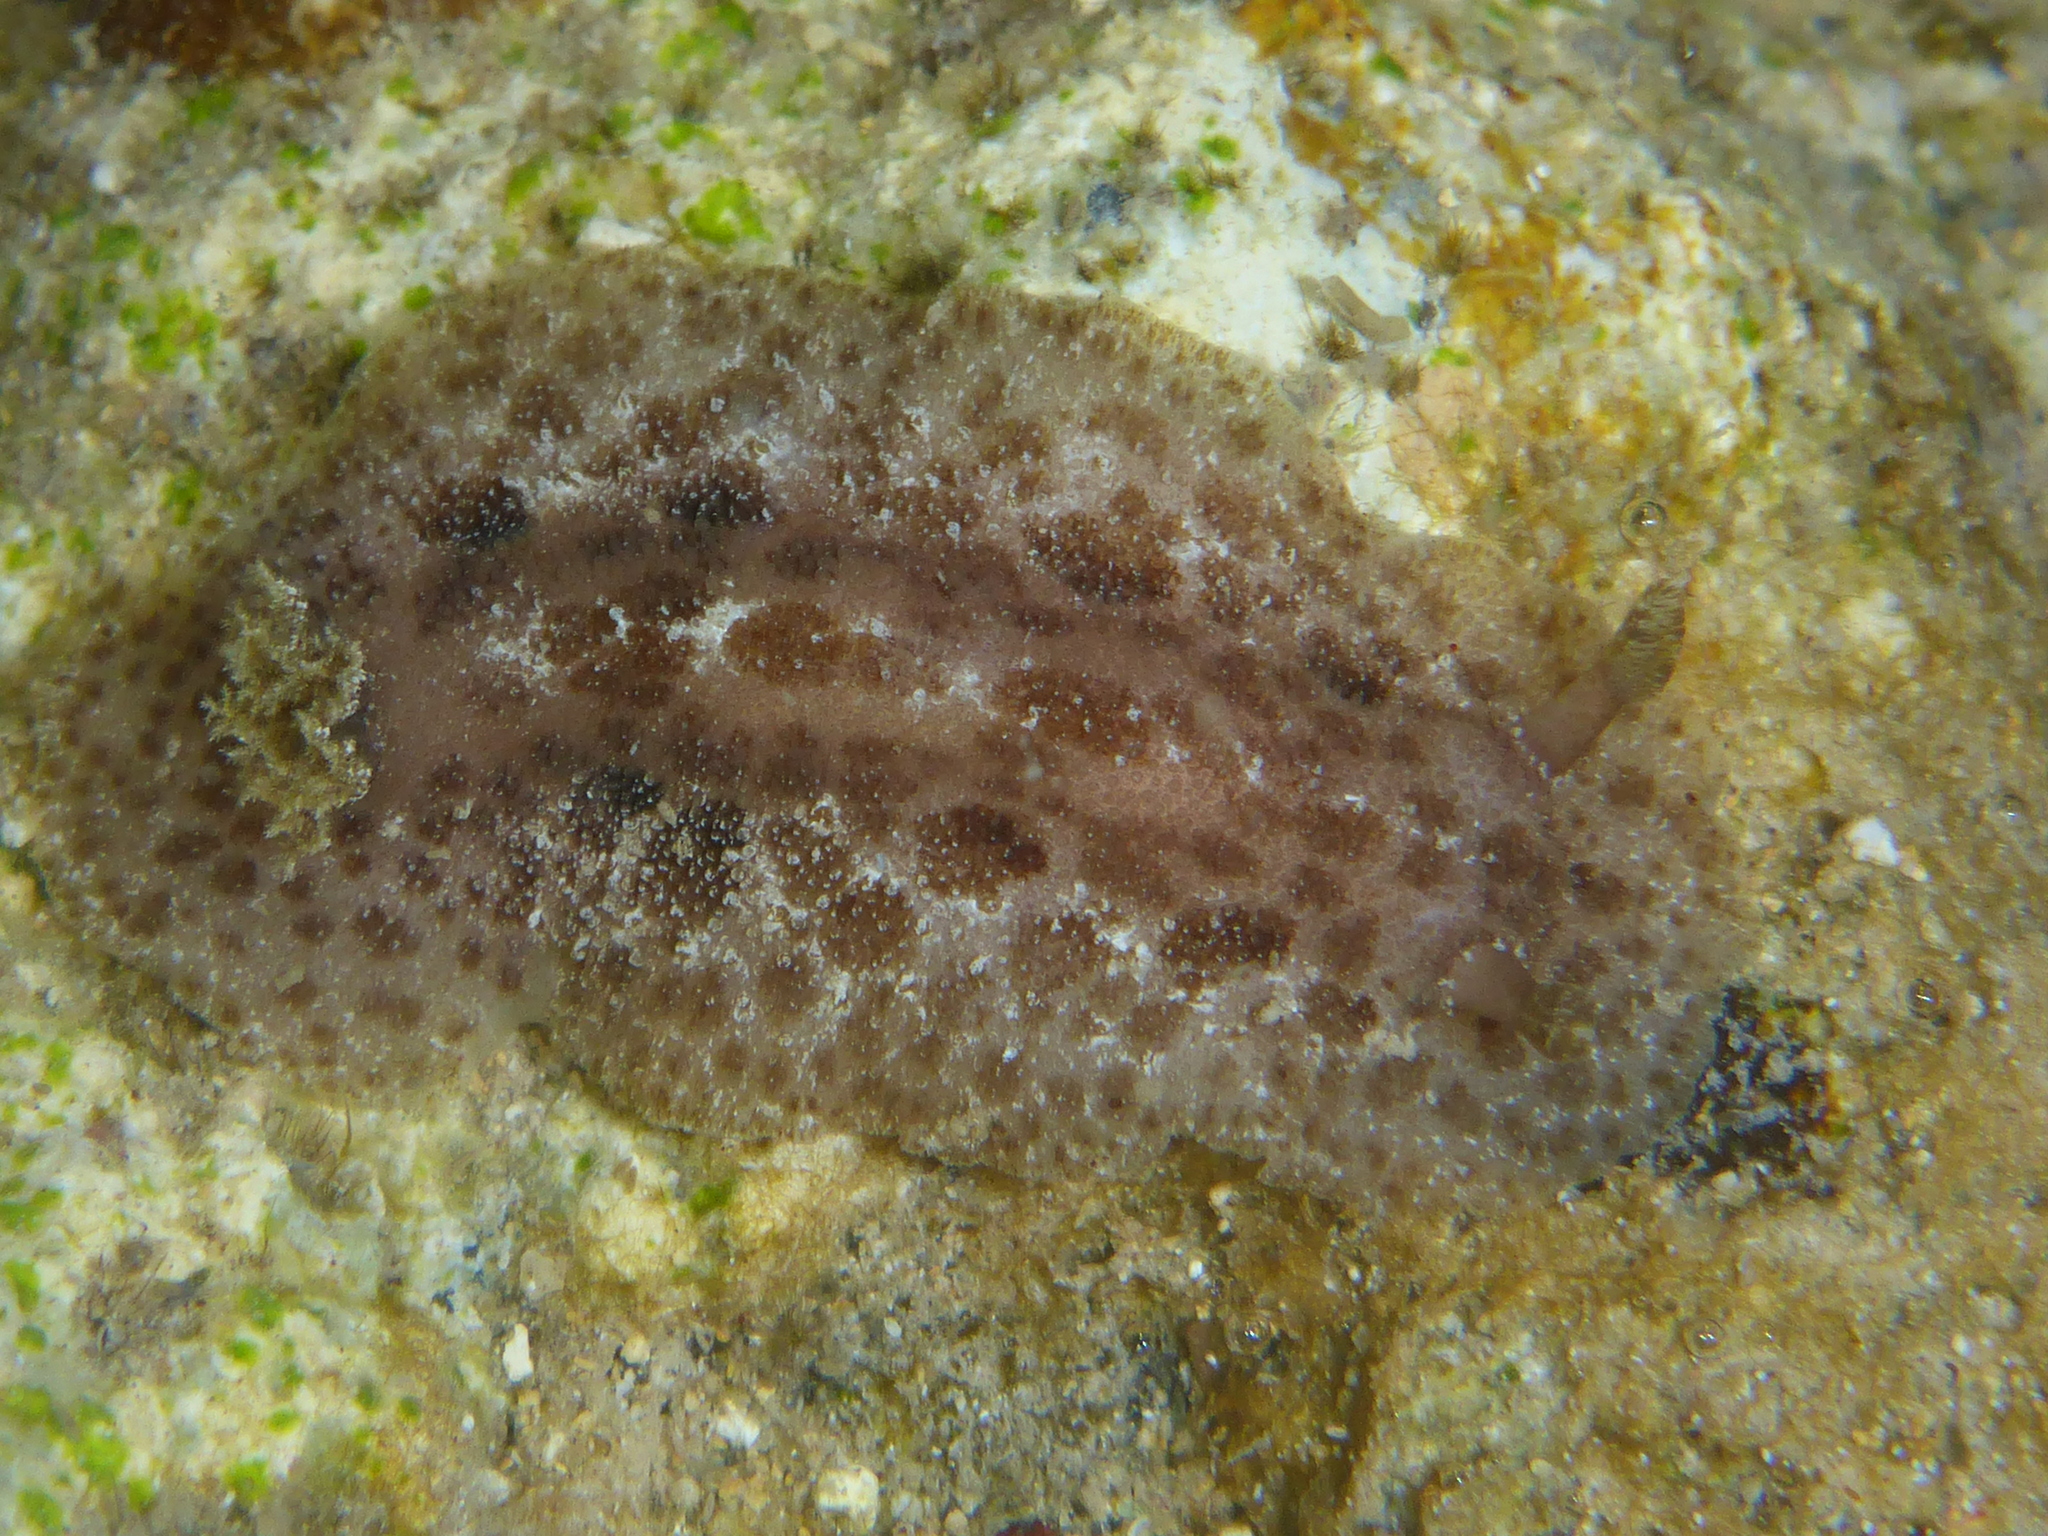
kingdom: Animalia
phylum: Mollusca
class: Gastropoda
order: Nudibranchia
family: Discodorididae
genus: Tayuva
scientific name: Tayuva lilacina
